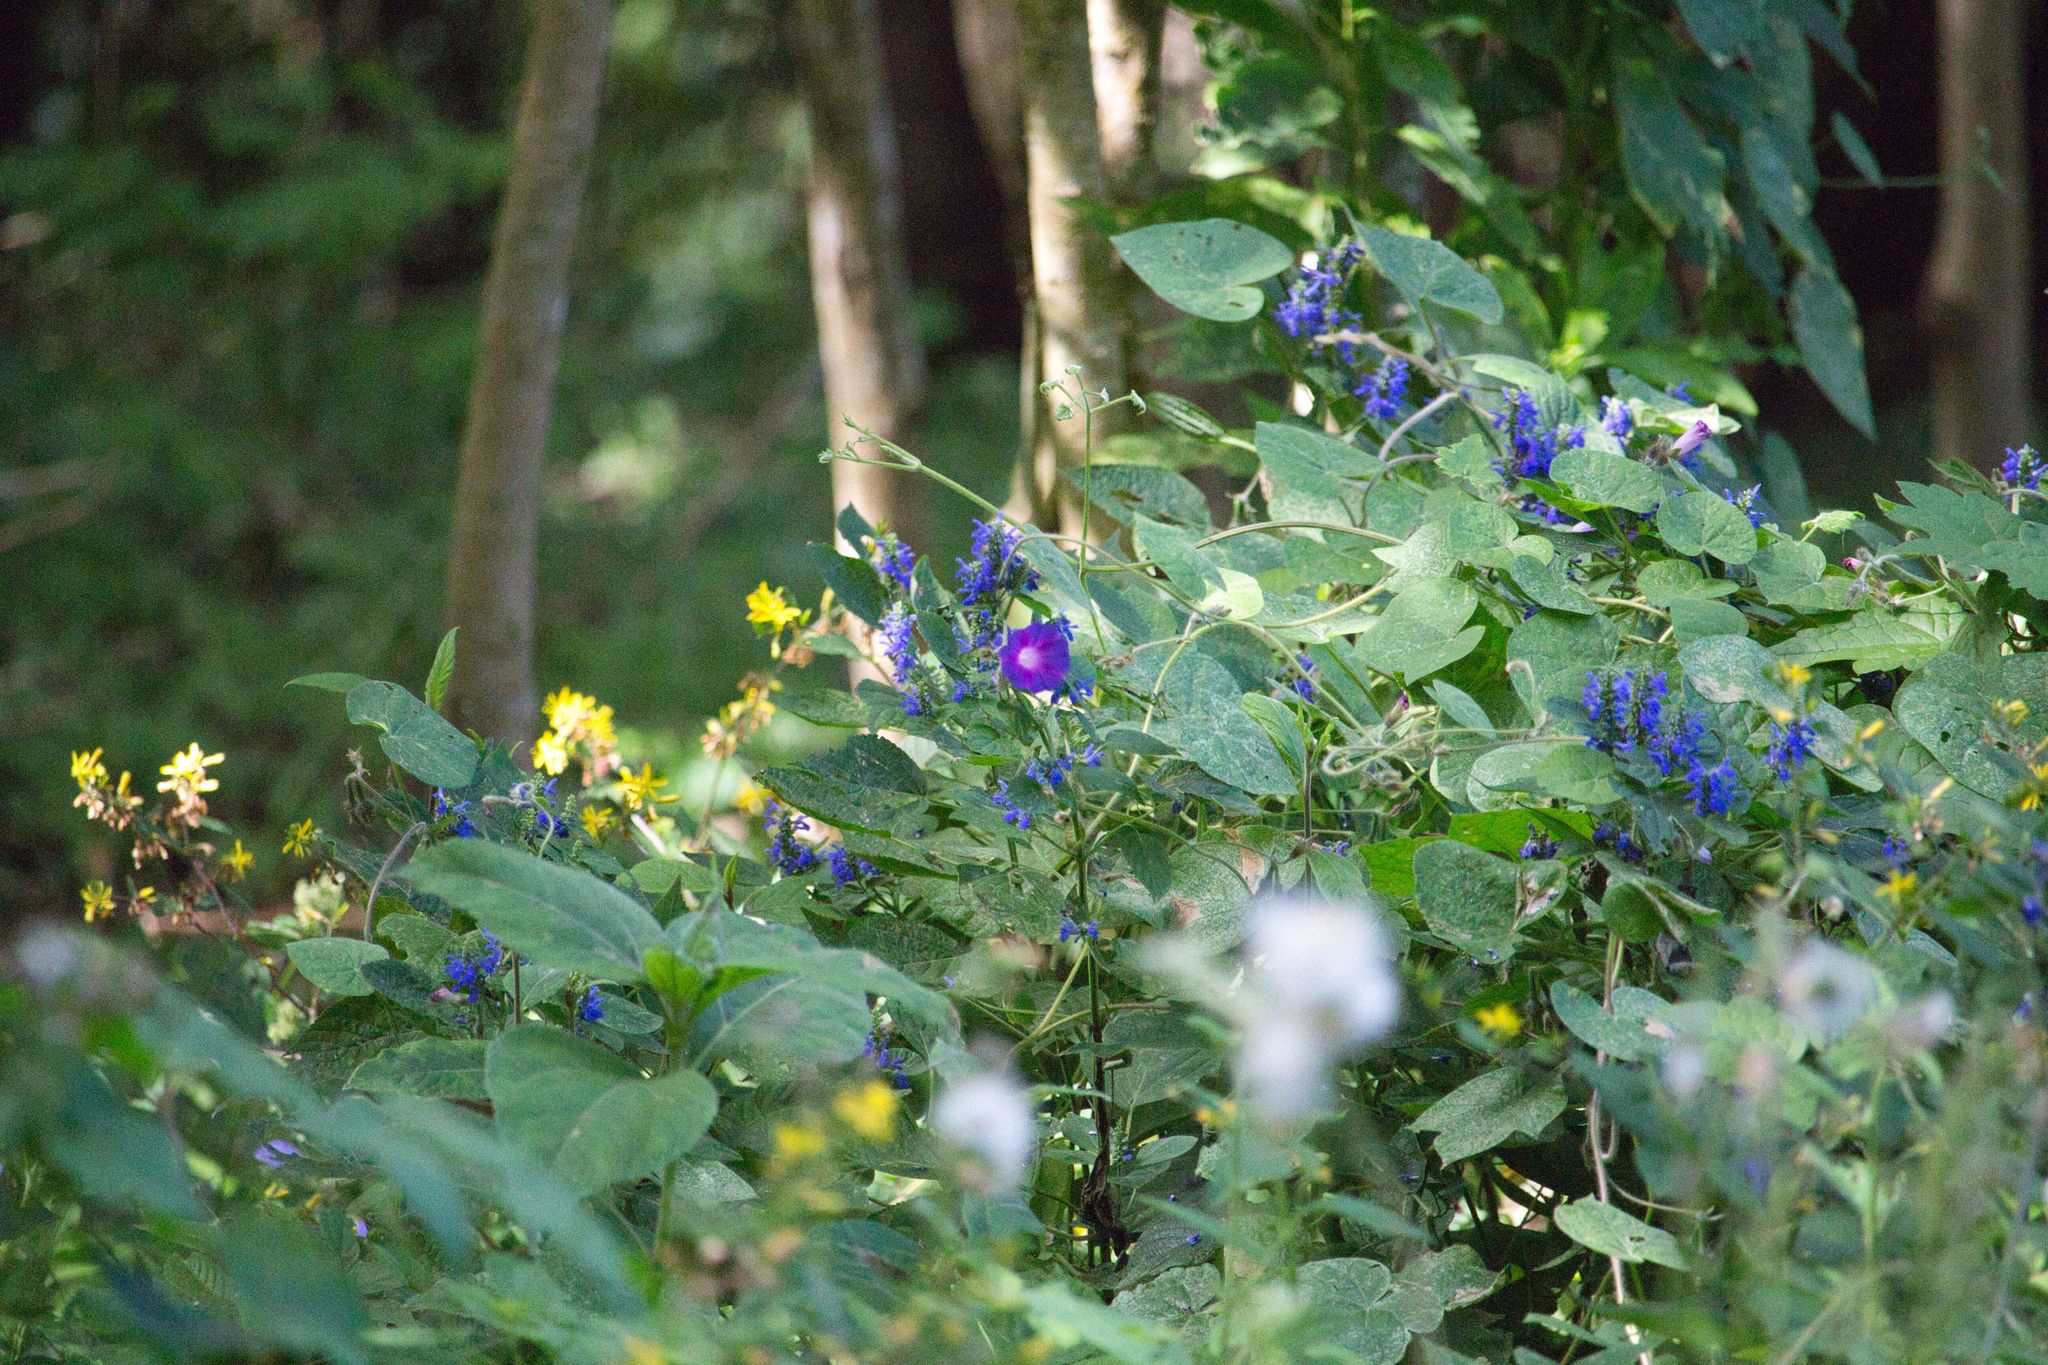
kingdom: Plantae
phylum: Tracheophyta
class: Magnoliopsida
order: Solanales
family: Convolvulaceae
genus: Ipomoea
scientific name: Ipomoea purpurea
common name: Common morning-glory
